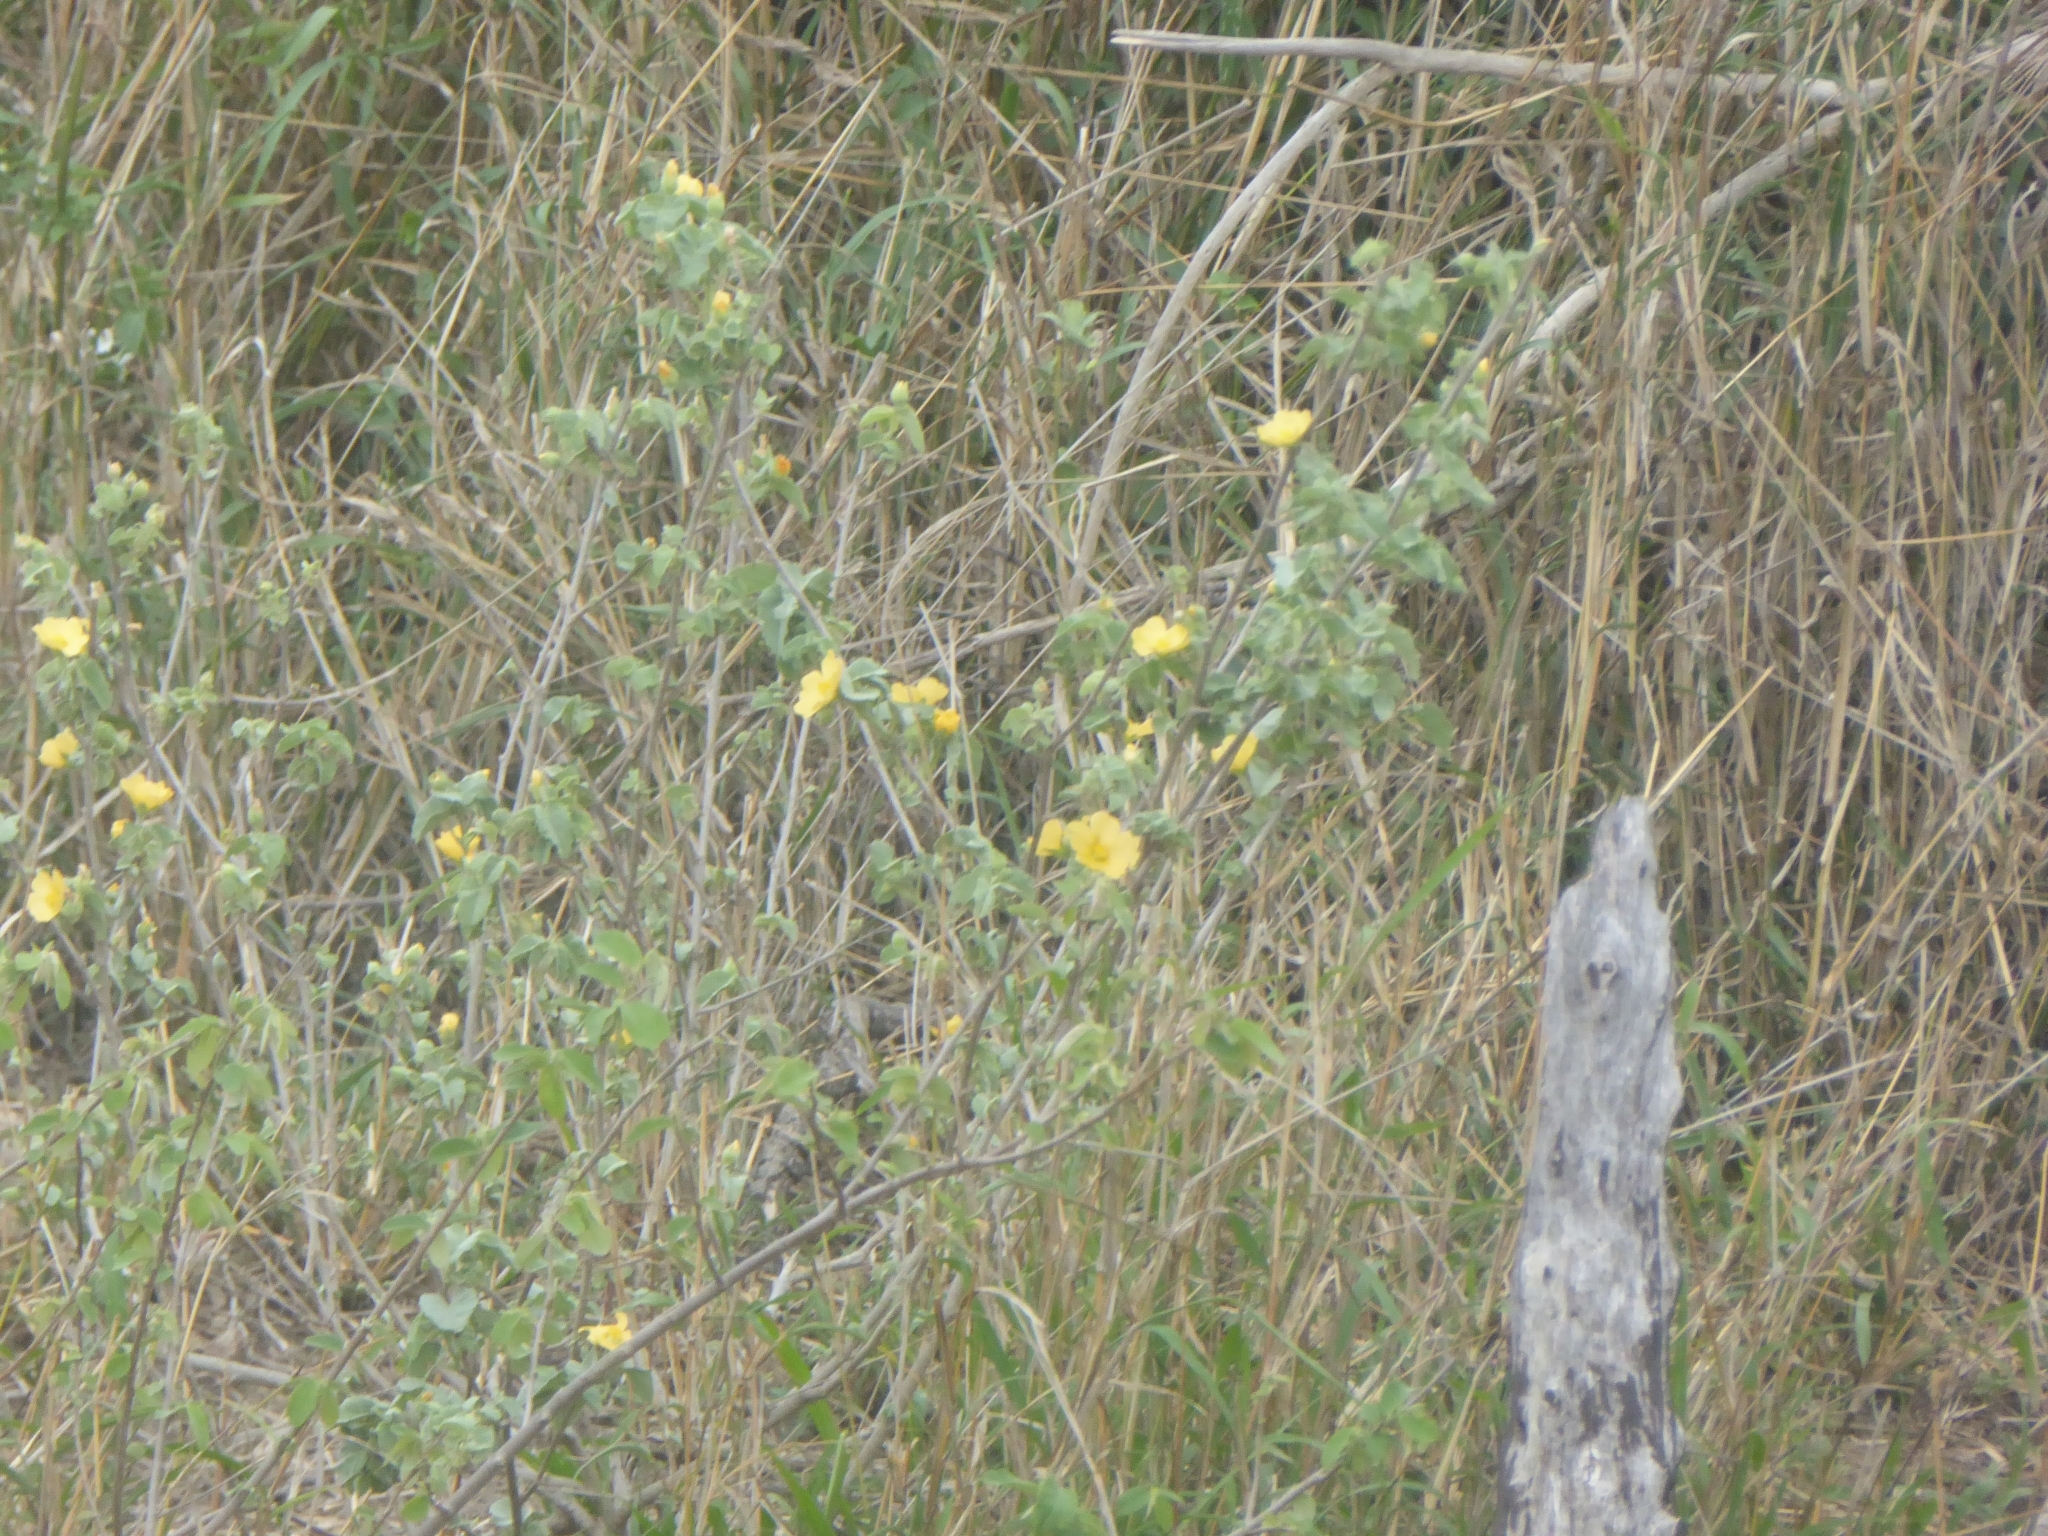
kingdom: Plantae
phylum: Tracheophyta
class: Magnoliopsida
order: Malvales
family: Malvaceae
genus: Abutilon
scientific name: Abutilon austroafricanum
